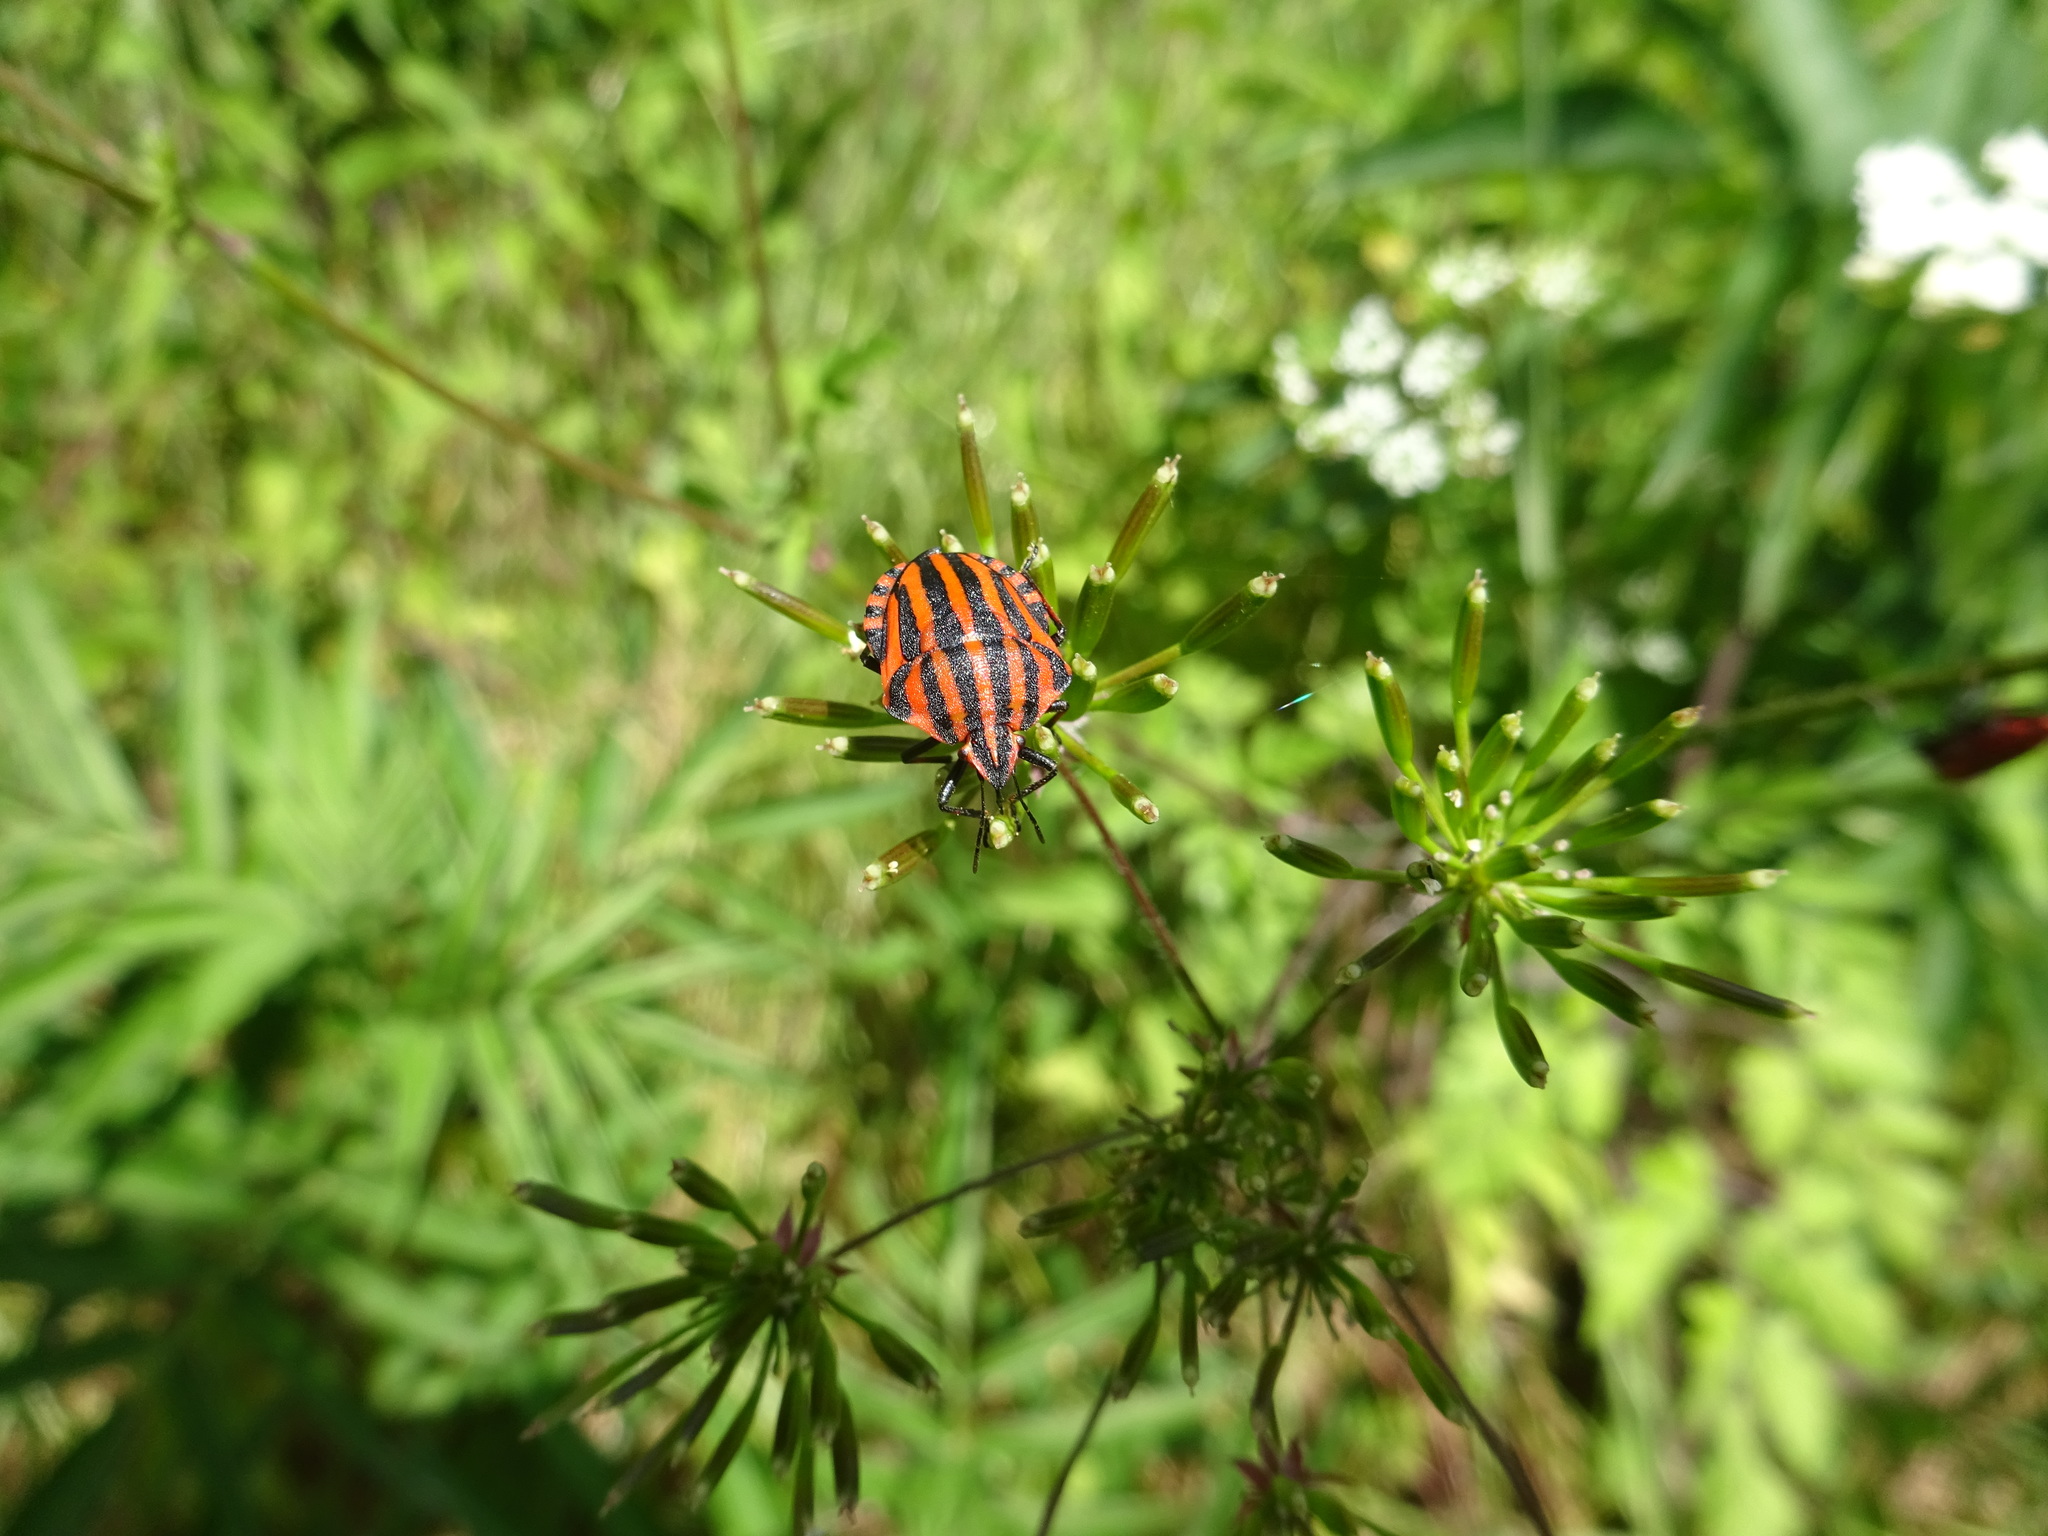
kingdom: Animalia
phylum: Arthropoda
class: Insecta
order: Hemiptera
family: Pentatomidae
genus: Graphosoma
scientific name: Graphosoma italicum
